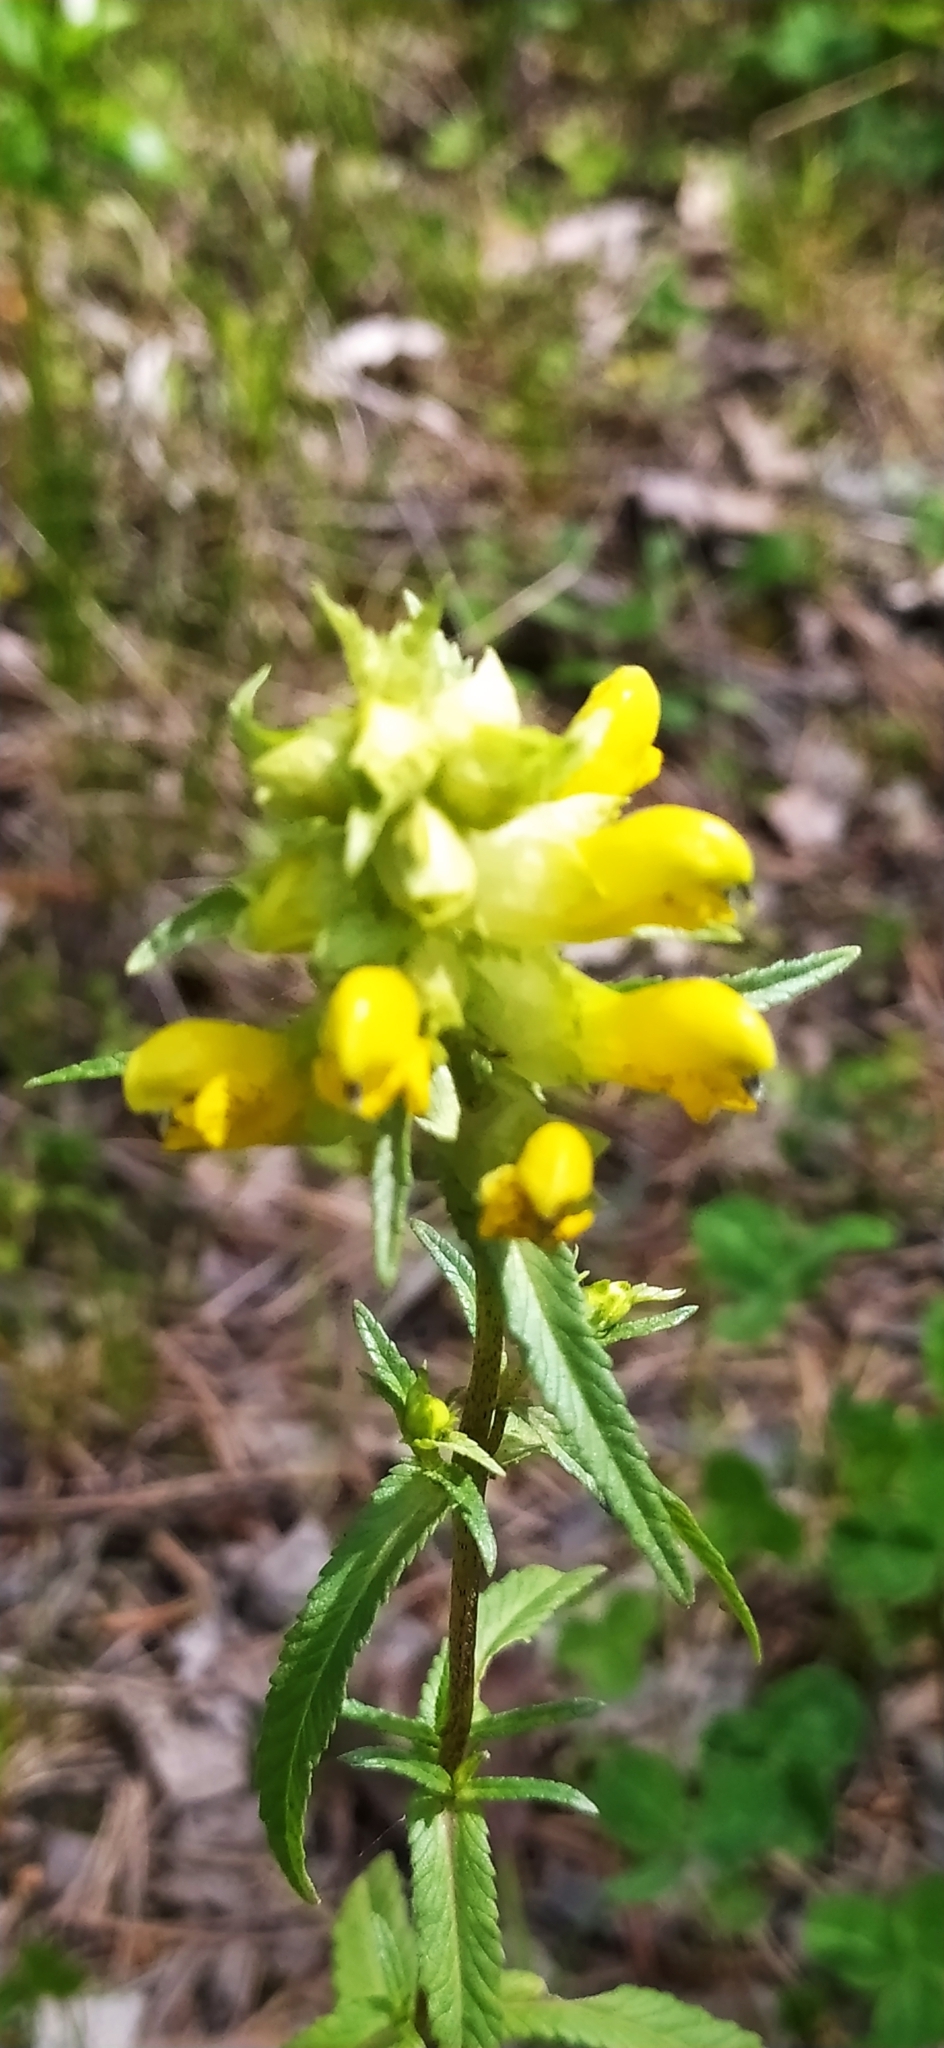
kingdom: Plantae
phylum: Tracheophyta
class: Magnoliopsida
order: Lamiales
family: Orobanchaceae
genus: Rhinanthus
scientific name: Rhinanthus serotinus
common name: Late-flowering yellow rattle
